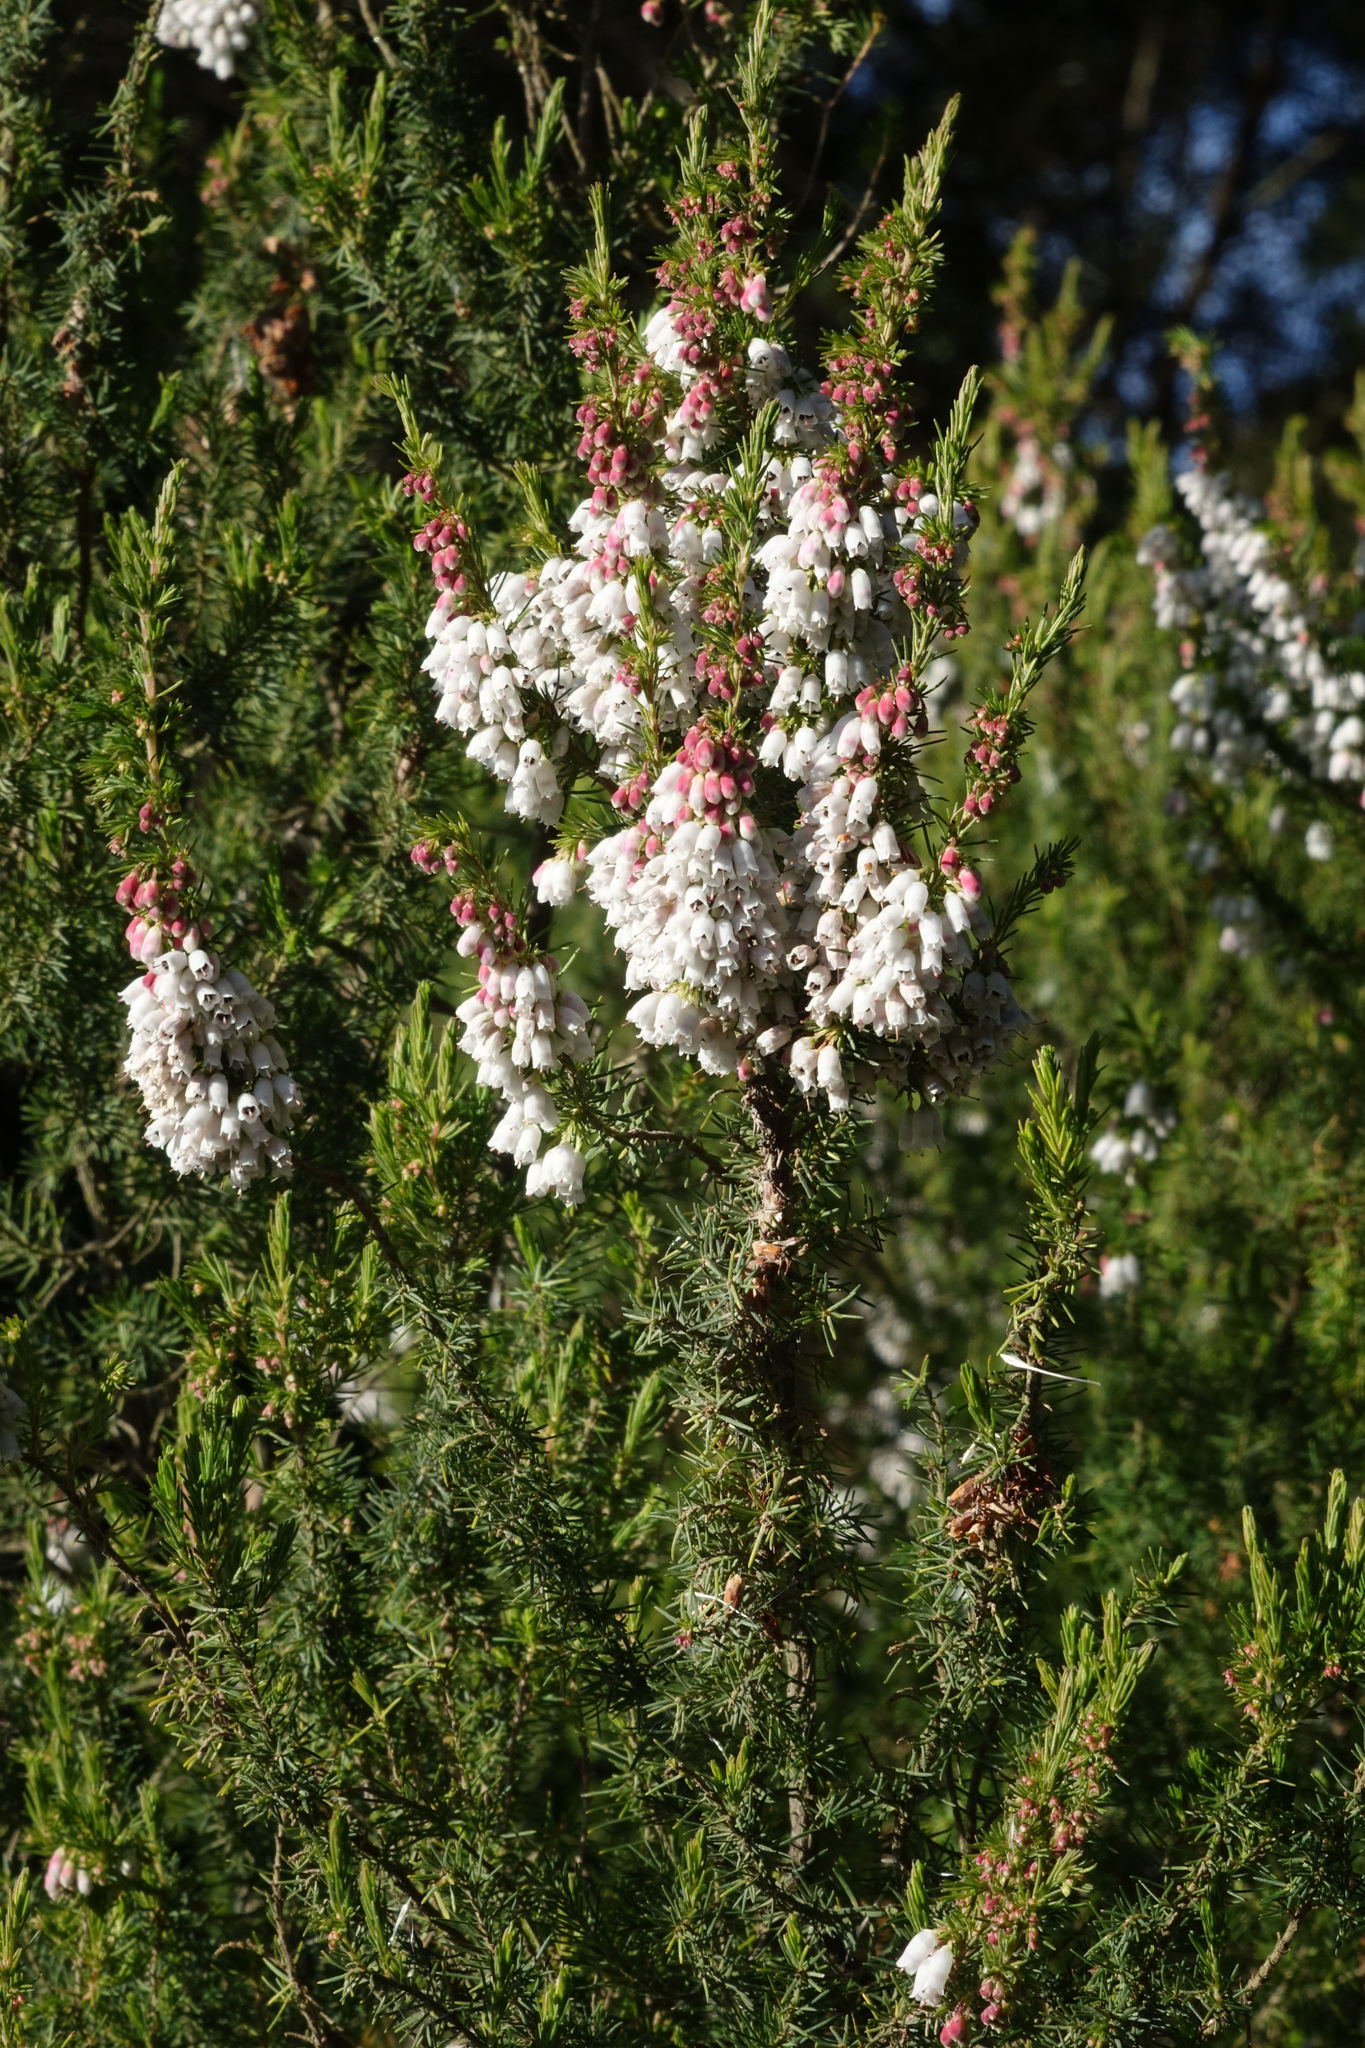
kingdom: Plantae
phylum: Tracheophyta
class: Magnoliopsida
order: Ericales
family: Ericaceae
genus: Erica
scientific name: Erica lusitanica
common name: Spanish heath
